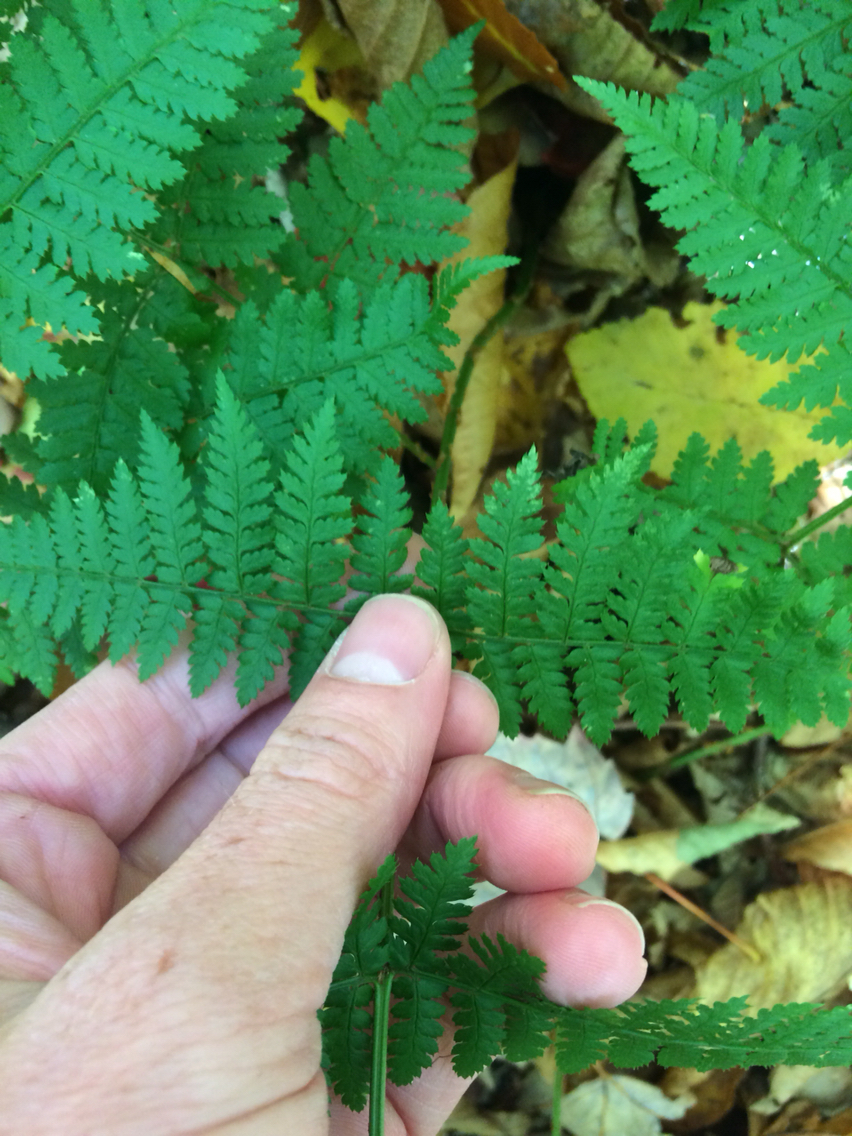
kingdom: Plantae
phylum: Tracheophyta
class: Polypodiopsida
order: Polypodiales
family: Dryopteridaceae
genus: Dryopteris
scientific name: Dryopteris intermedia
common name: Evergreen wood fern
